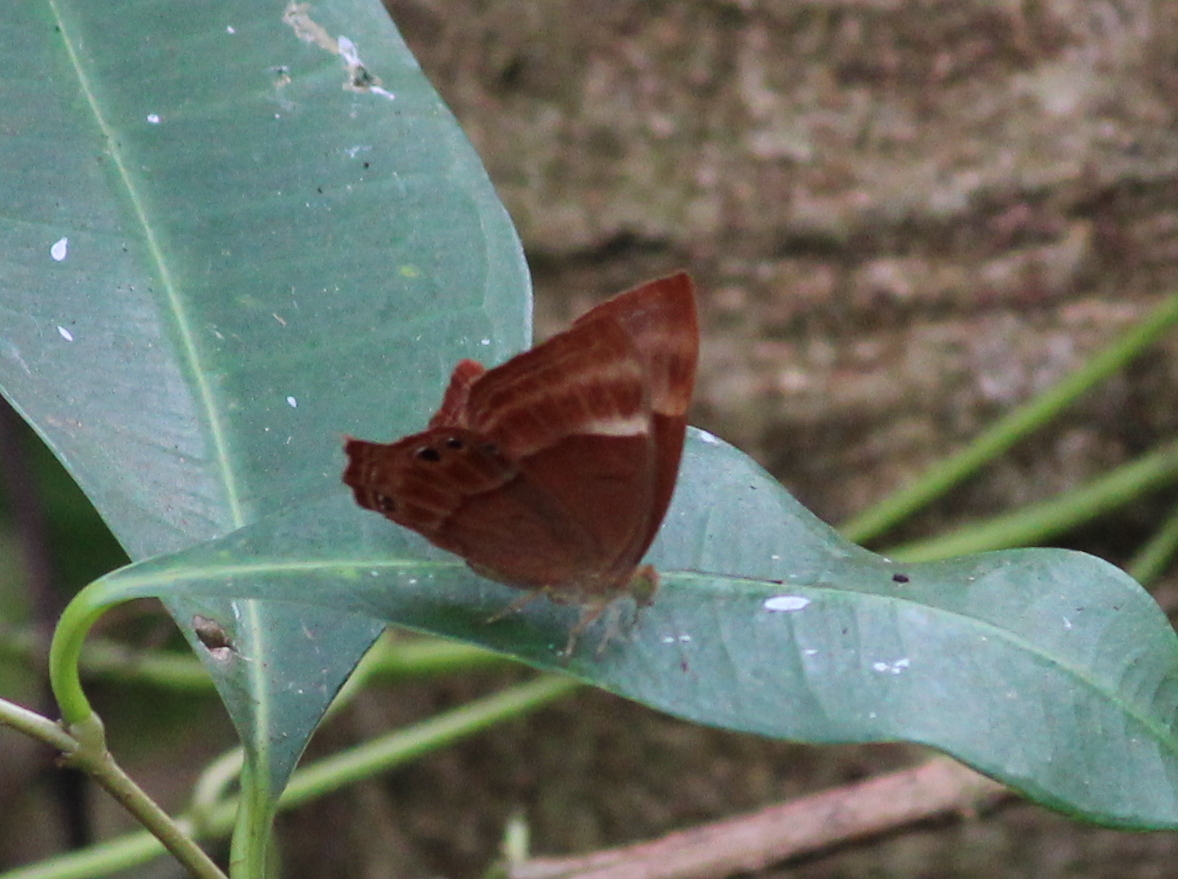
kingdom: Animalia
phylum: Arthropoda
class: Insecta
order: Lepidoptera
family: Lycaenidae
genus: Abisara
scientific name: Abisara bifasciata
